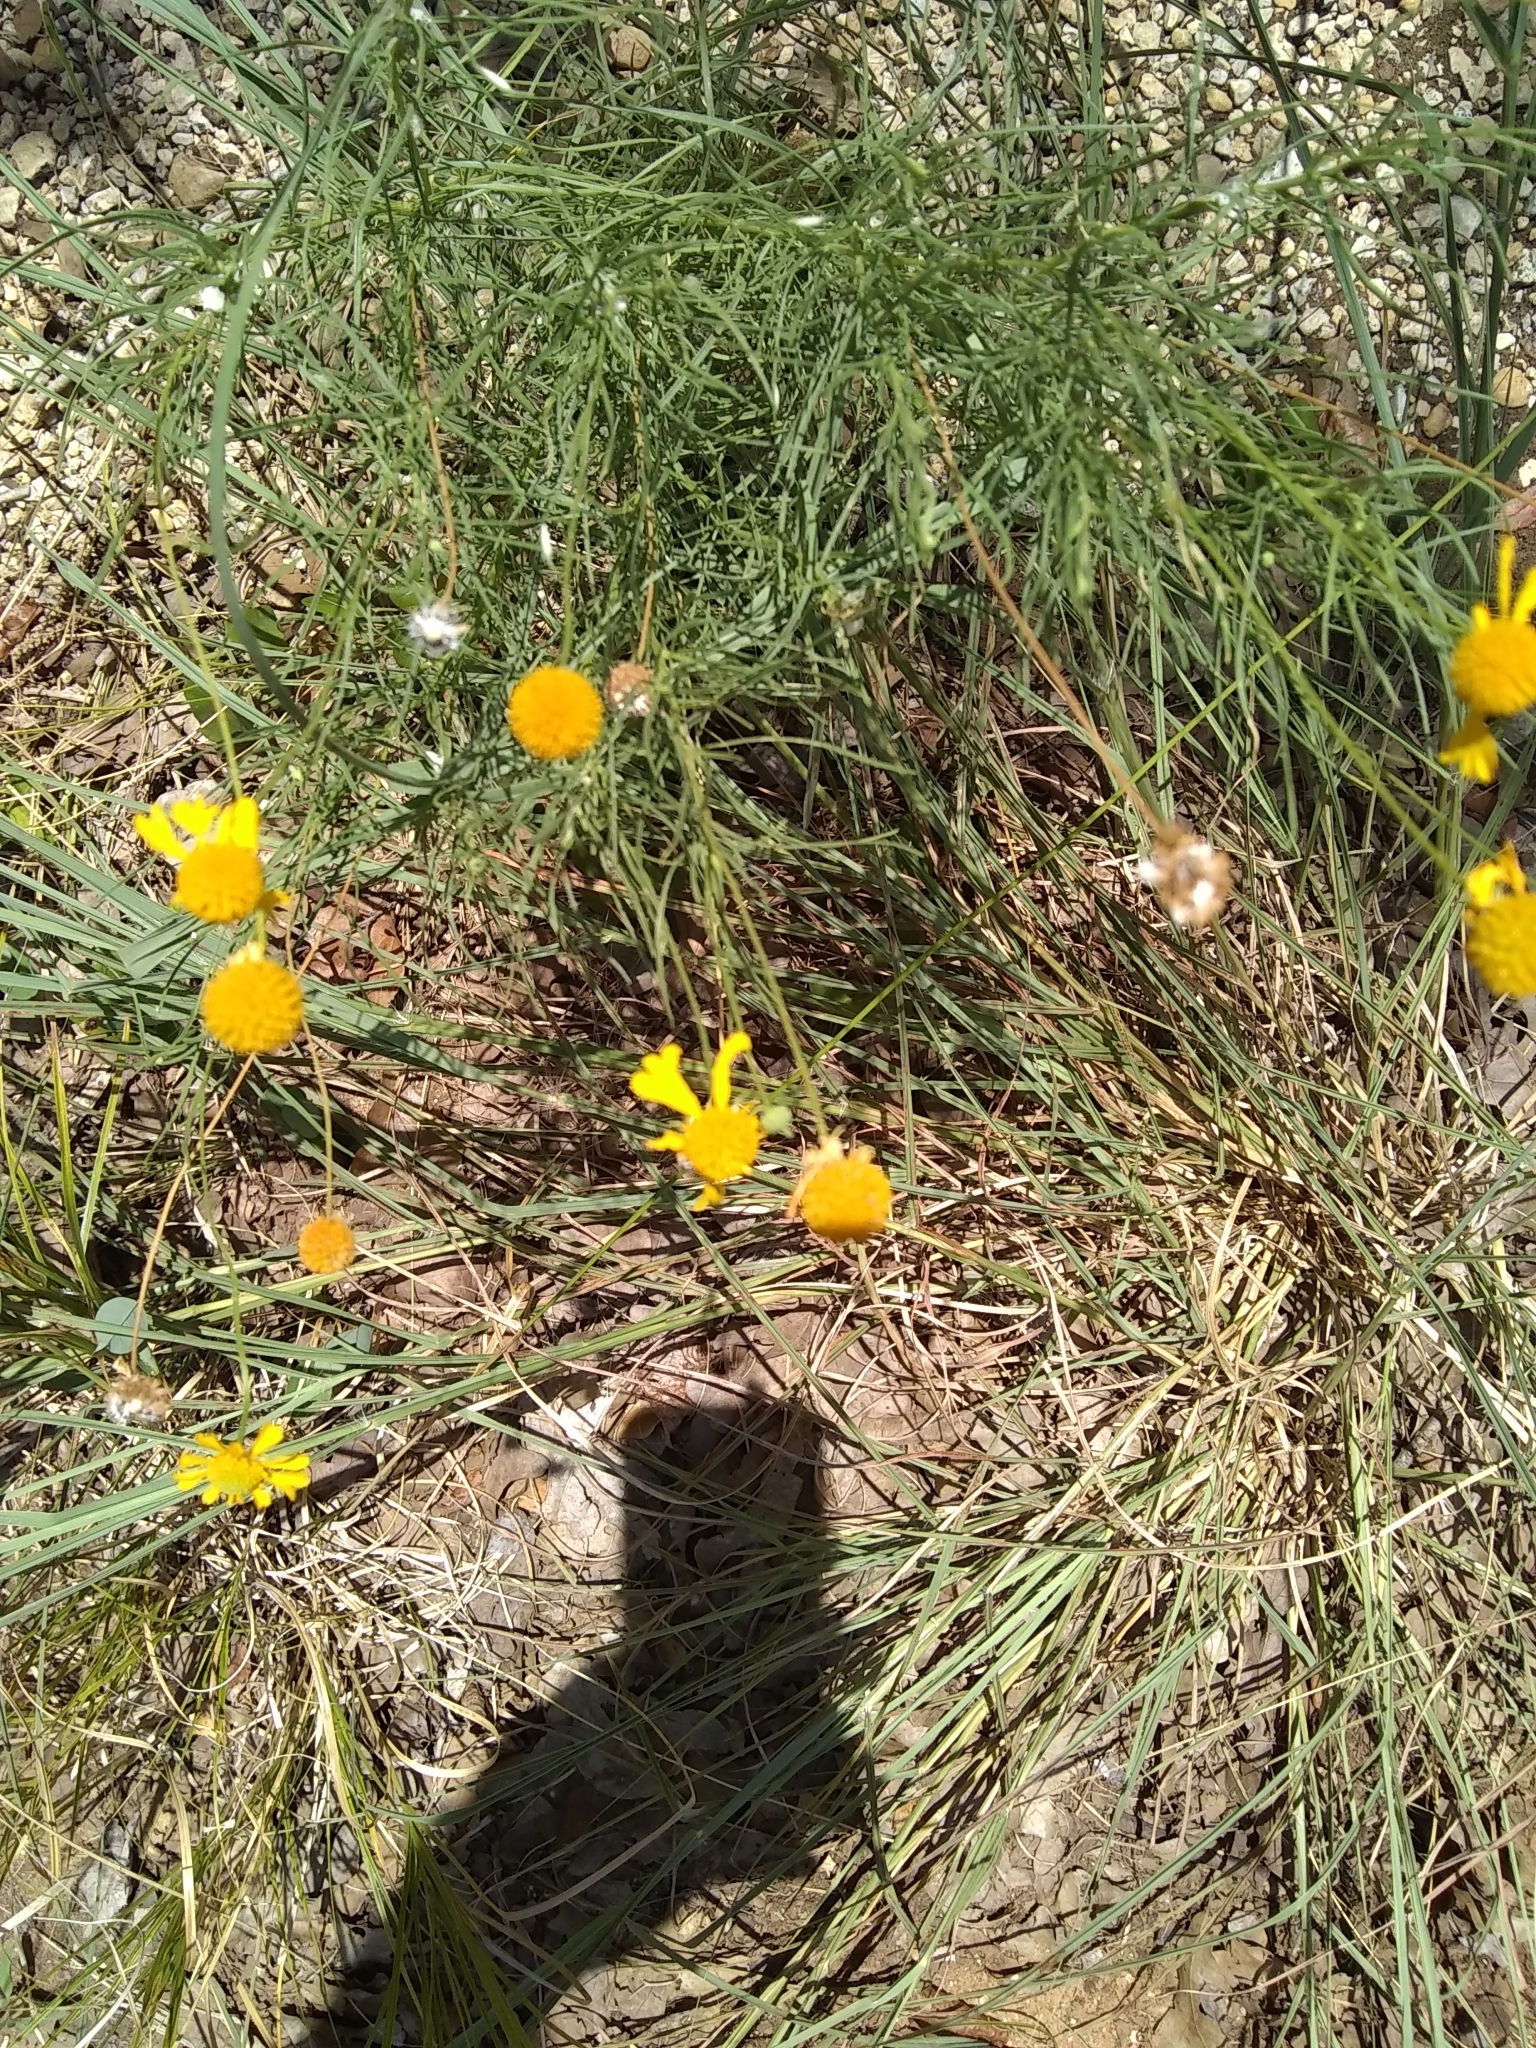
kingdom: Plantae
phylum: Tracheophyta
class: Magnoliopsida
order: Asterales
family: Asteraceae
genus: Helenium
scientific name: Helenium amarum
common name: Bitter sneezeweed
